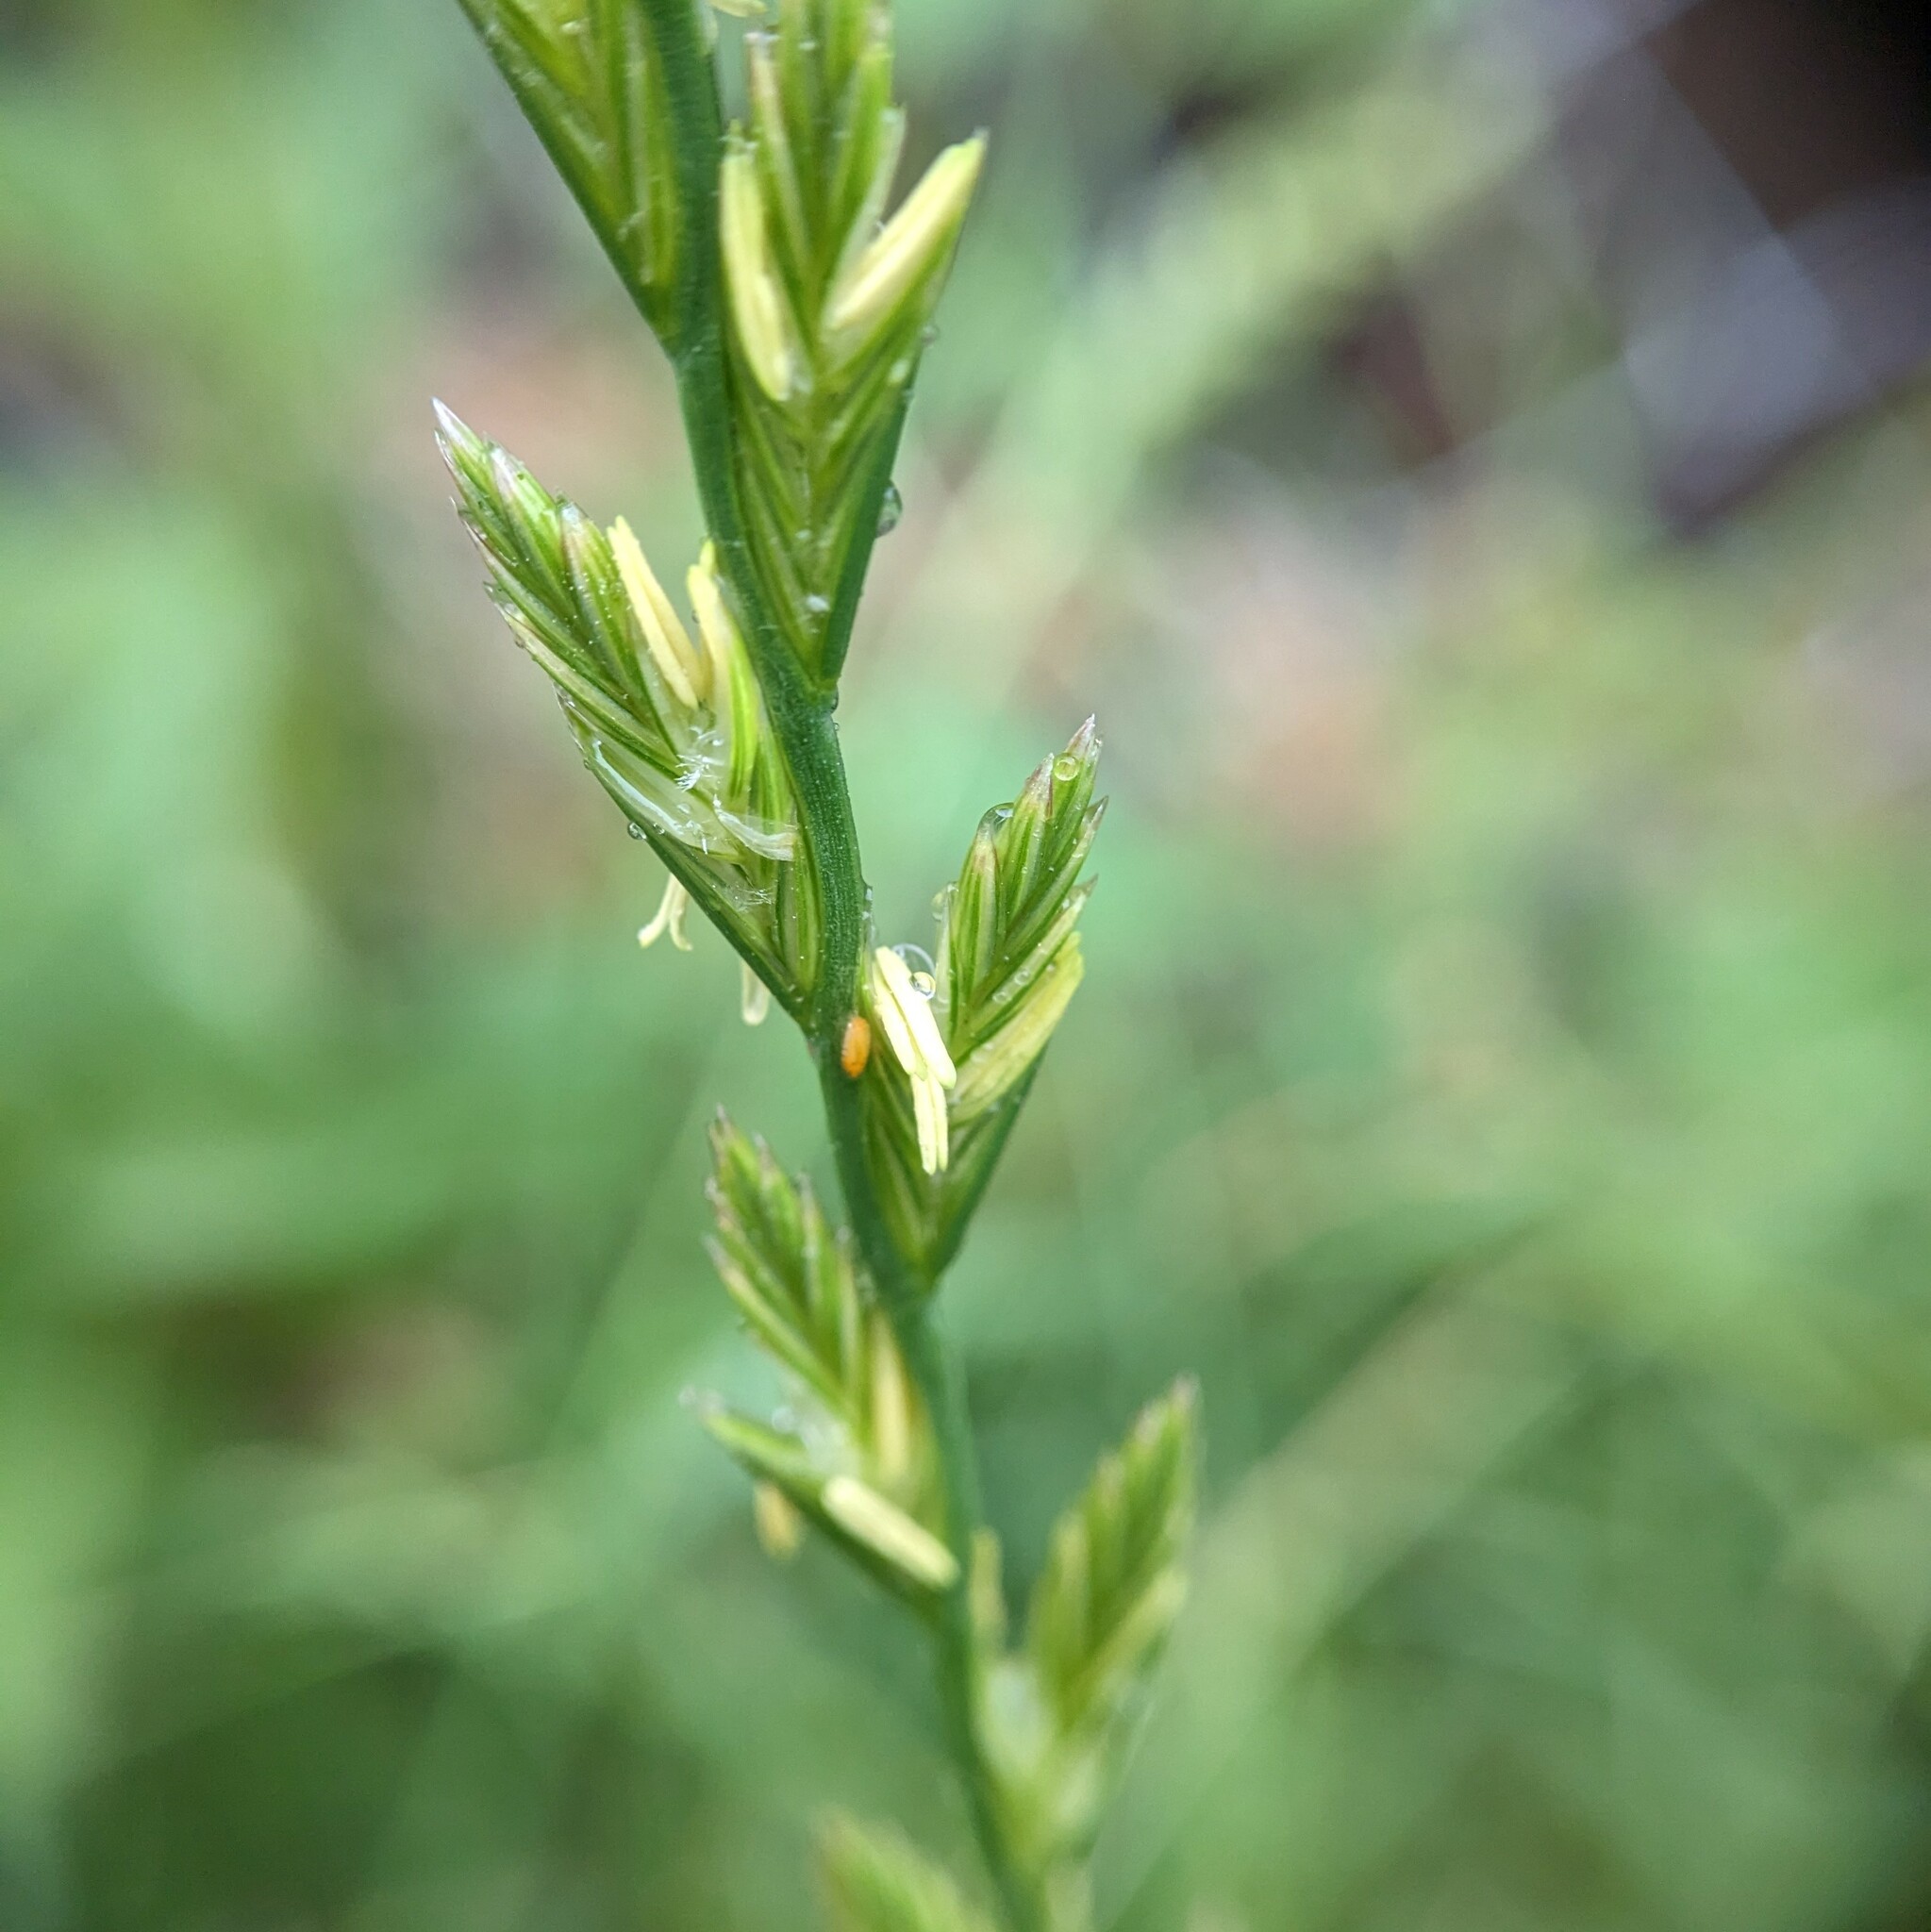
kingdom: Plantae
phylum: Tracheophyta
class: Liliopsida
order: Poales
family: Poaceae
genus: Lolium
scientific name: Lolium perenne
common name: Perennial ryegrass
